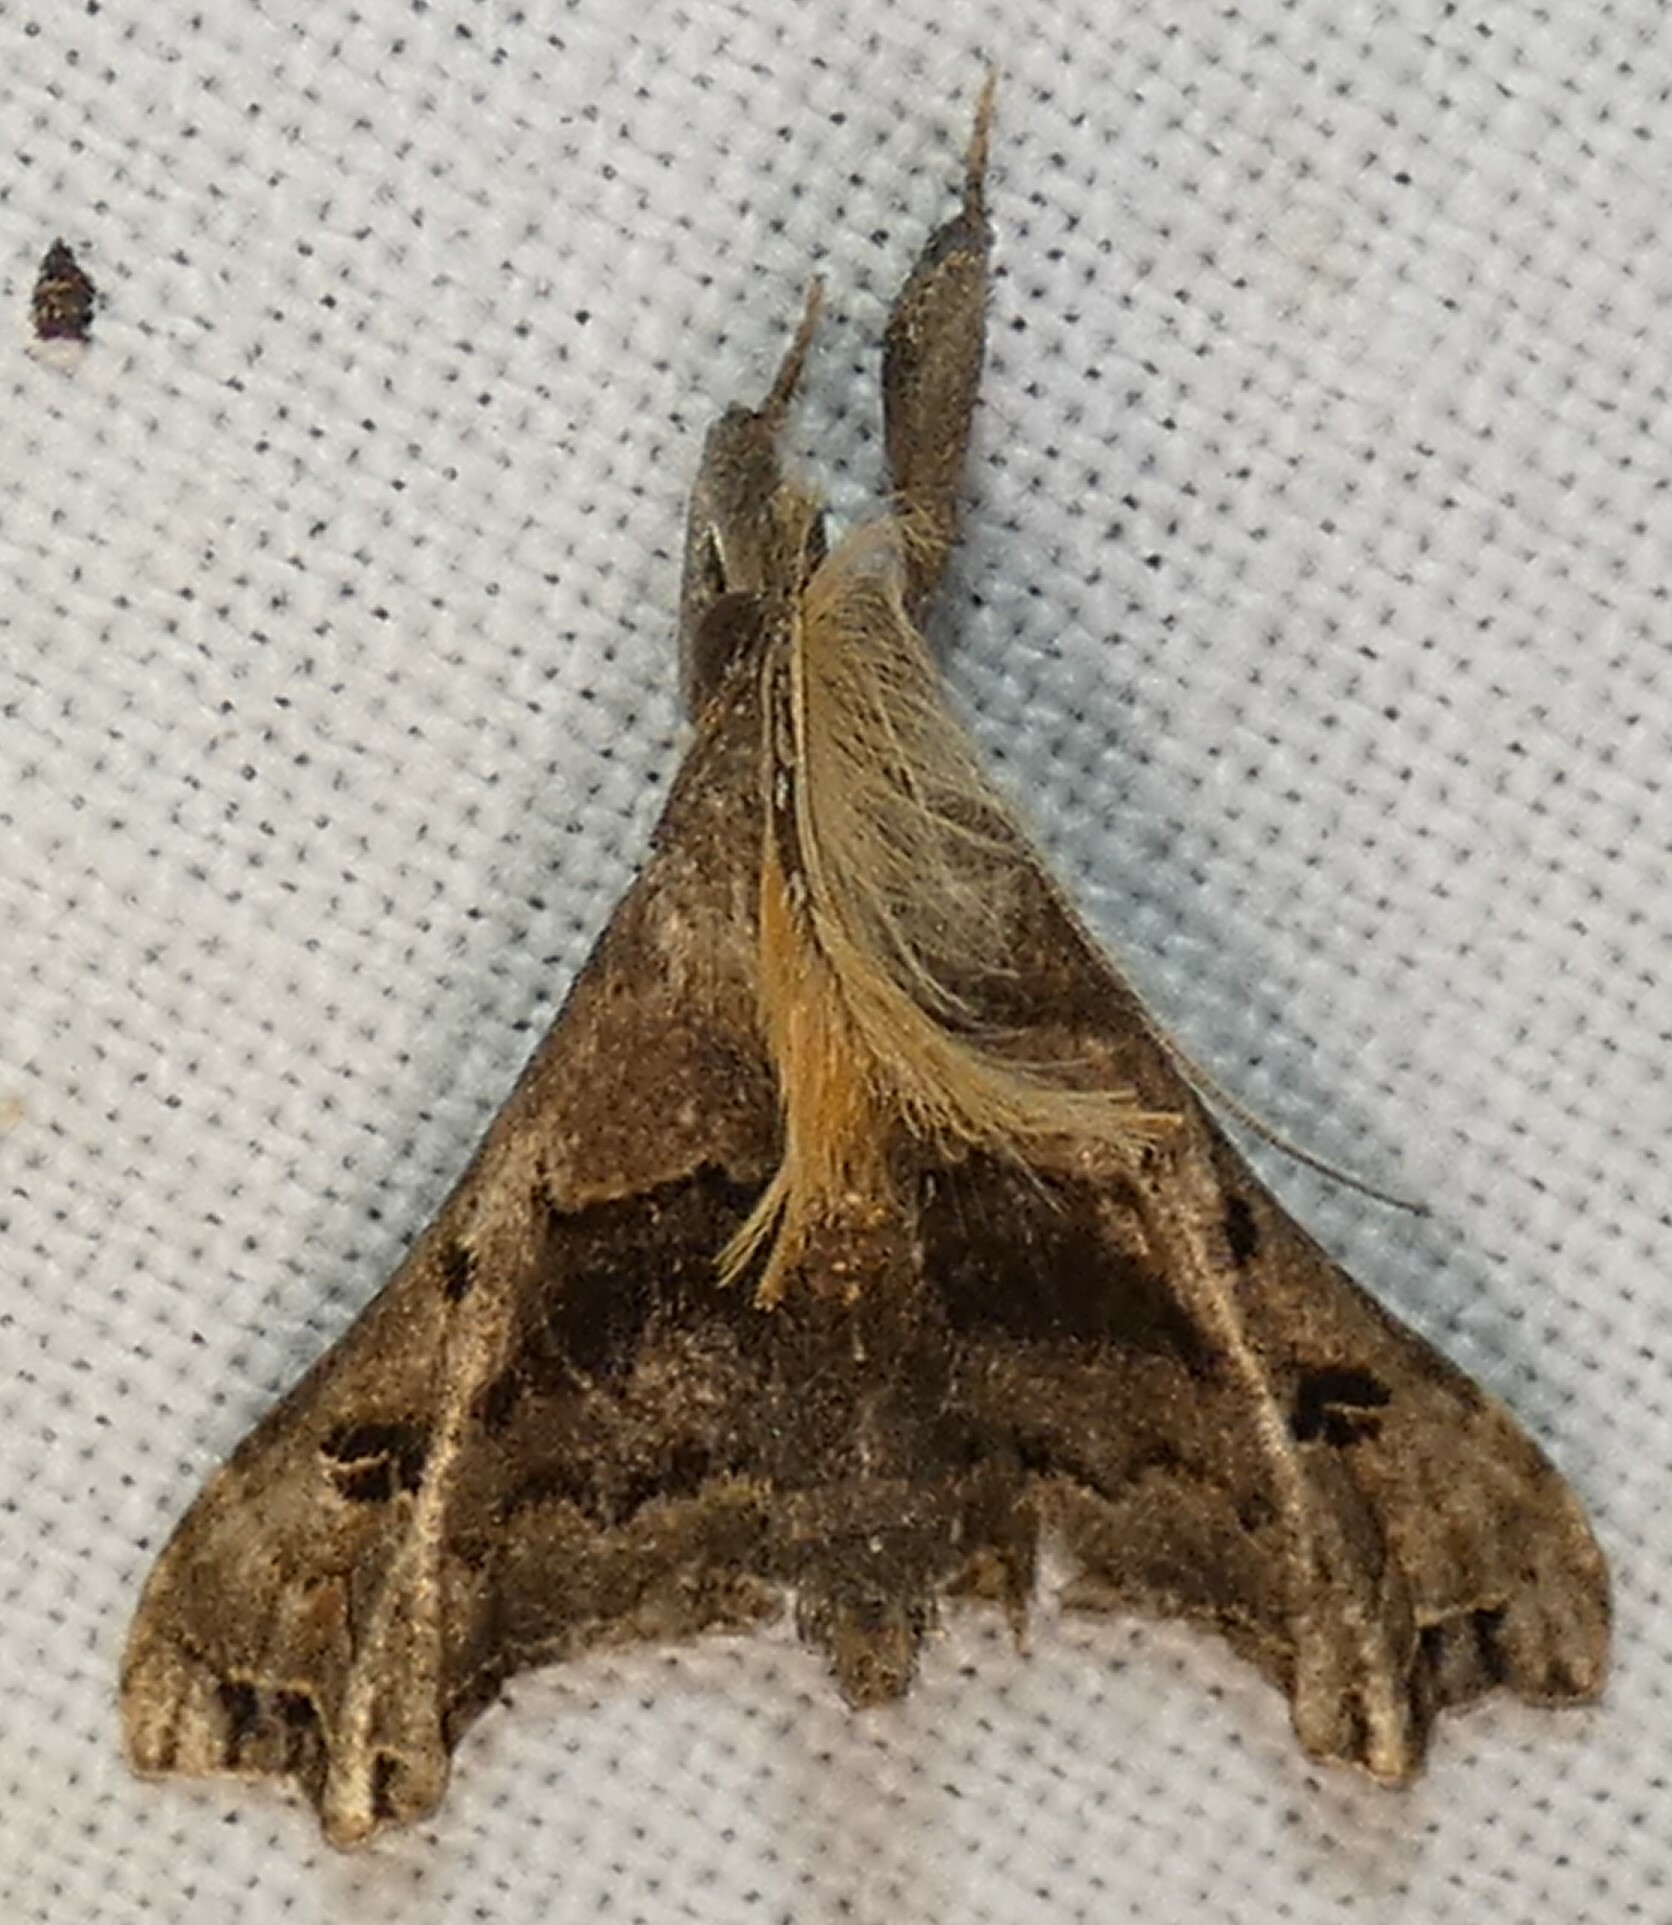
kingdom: Animalia
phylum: Arthropoda
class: Insecta
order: Lepidoptera
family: Erebidae
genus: Palthis
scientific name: Palthis asopialis
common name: Faint-spotted palthis moth
